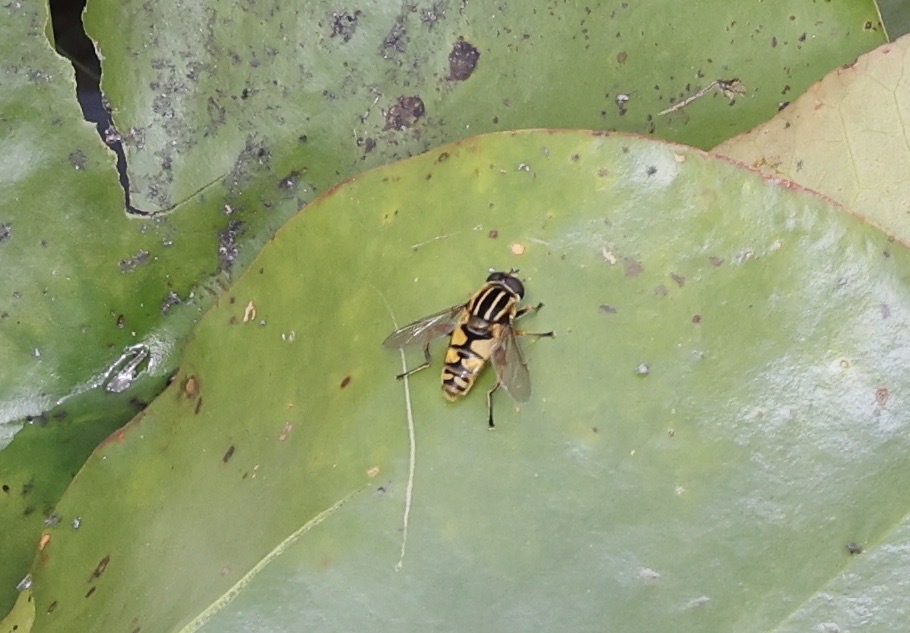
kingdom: Animalia
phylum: Arthropoda
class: Insecta
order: Diptera
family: Syrphidae
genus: Helophilus
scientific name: Helophilus pendulus
